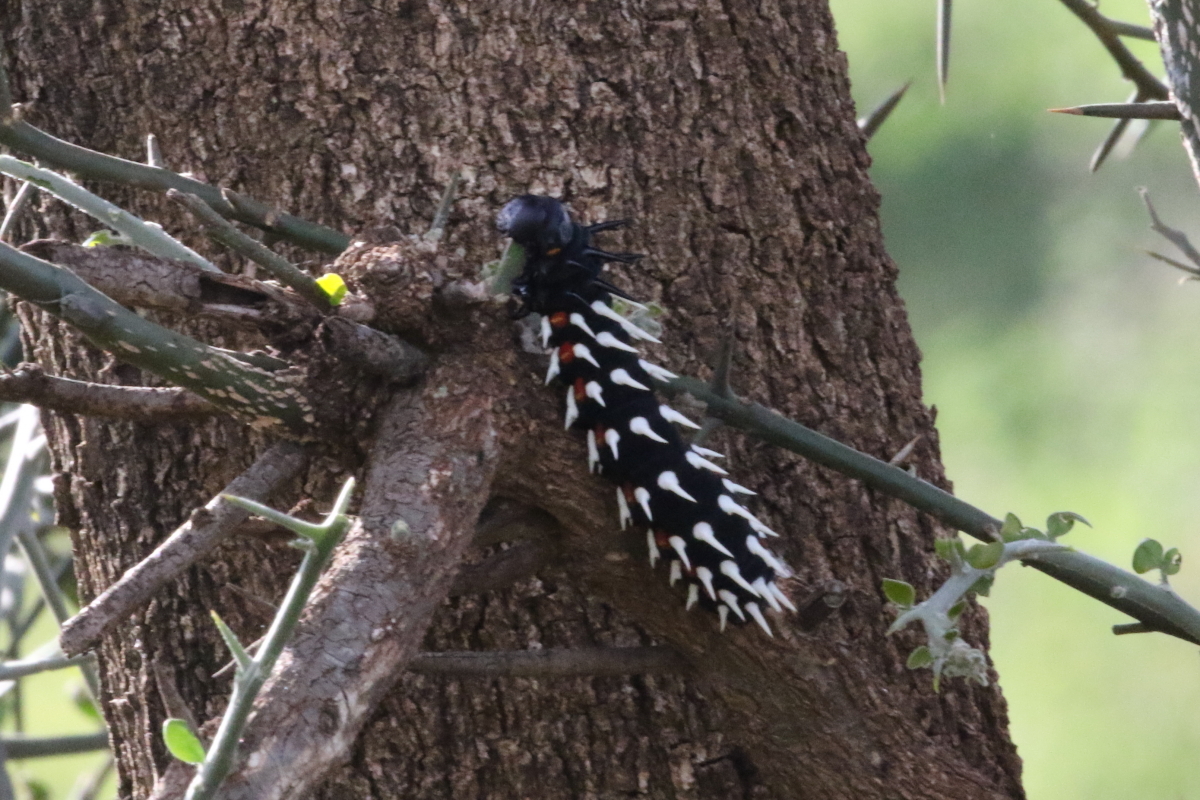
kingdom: Animalia
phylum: Arthropoda
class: Insecta
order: Lepidoptera
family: Saturniidae
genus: Bunaea
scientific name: Bunaea alcinoe
